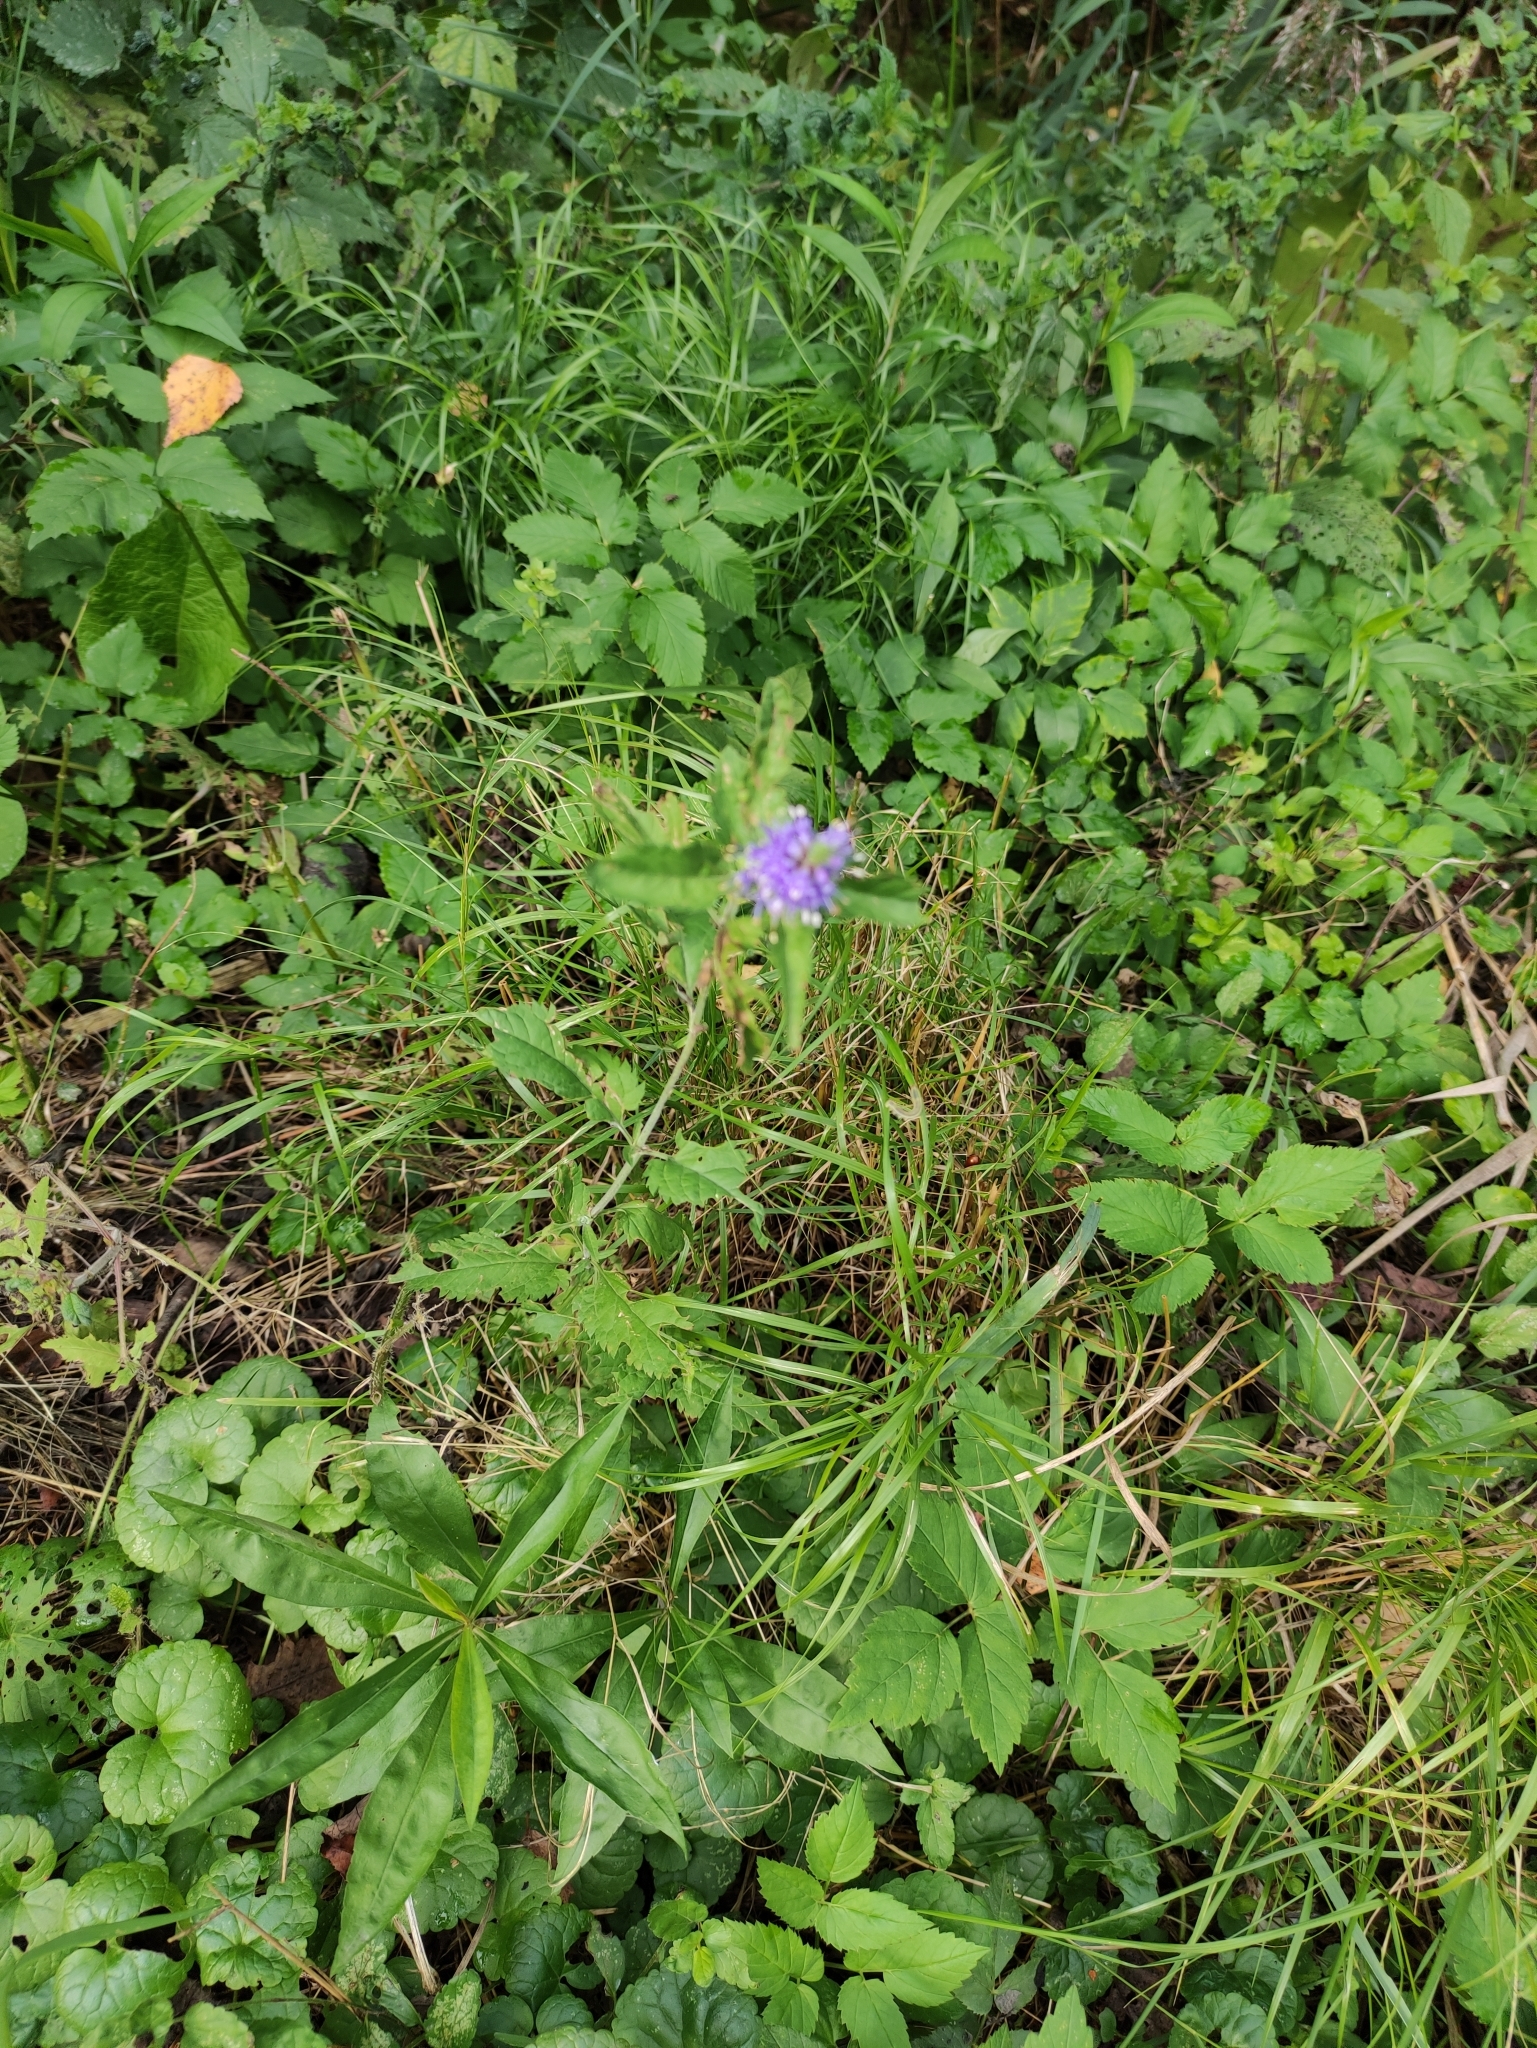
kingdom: Plantae
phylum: Tracheophyta
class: Magnoliopsida
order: Lamiales
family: Plantaginaceae
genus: Veronica
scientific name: Veronica longifolia
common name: Garden speedwell
